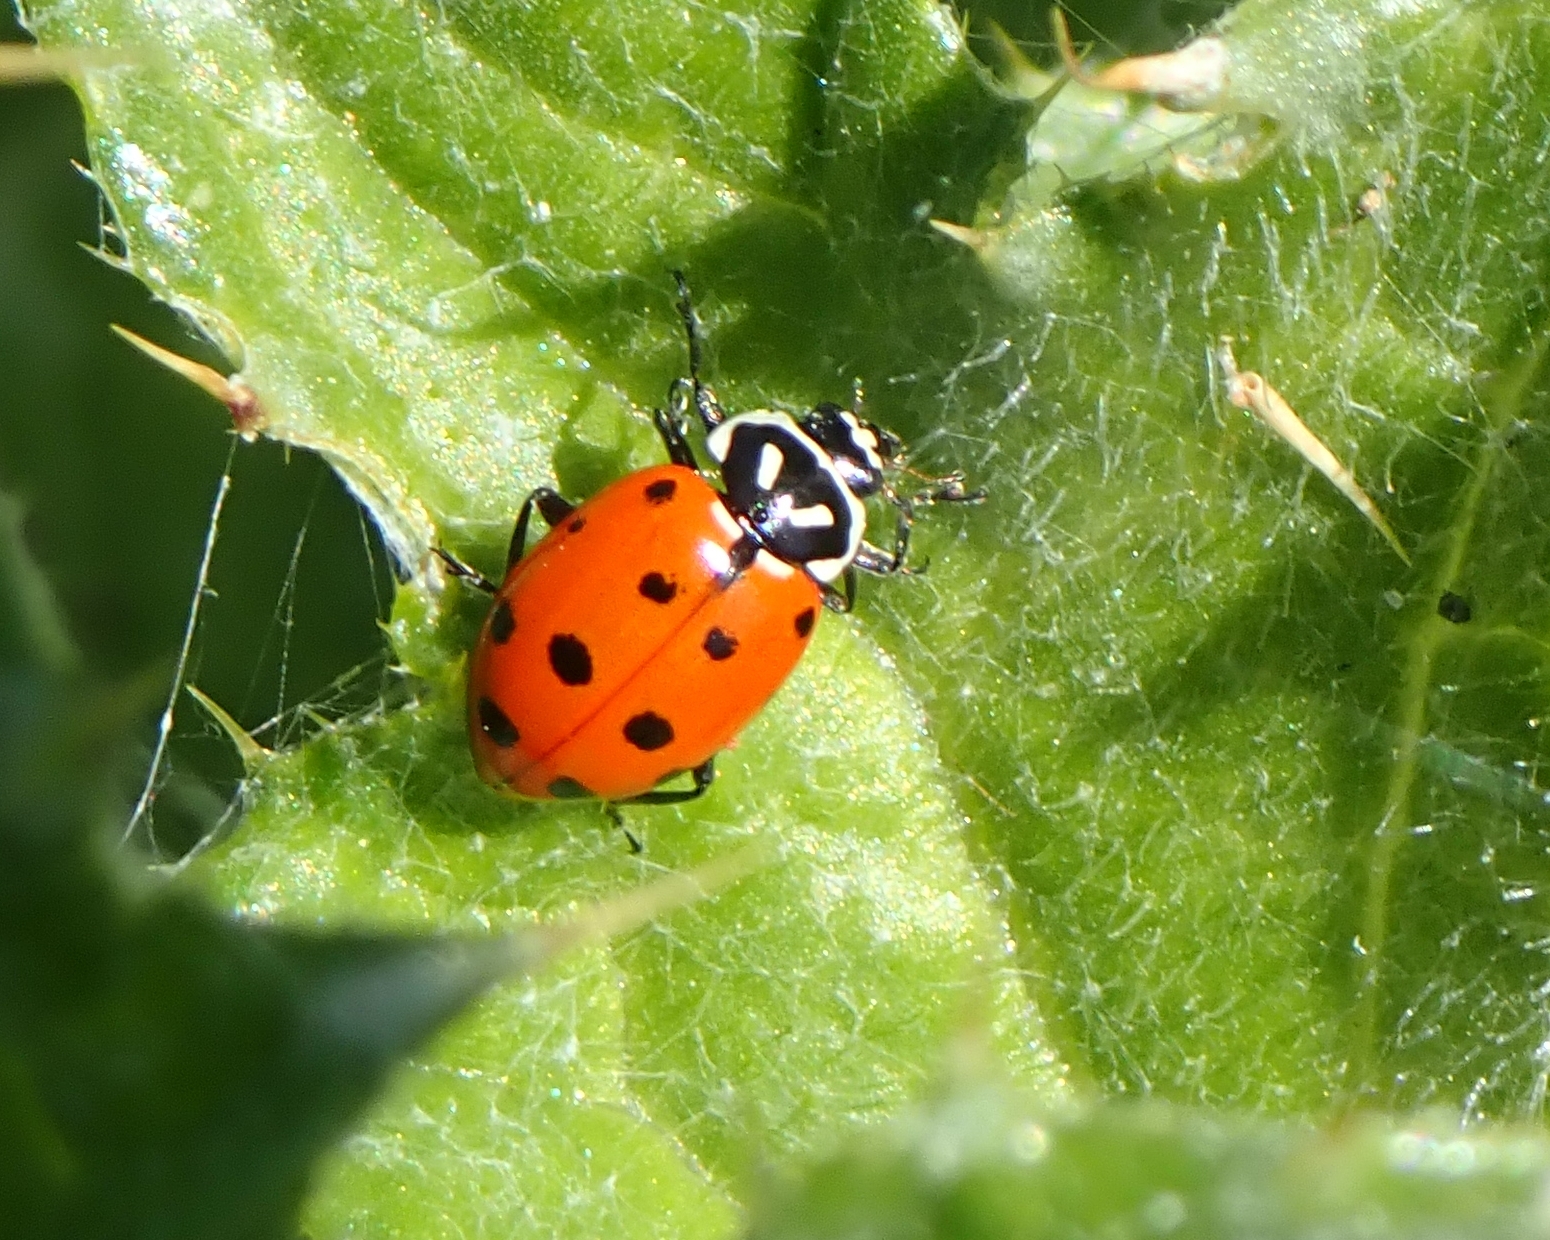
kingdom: Animalia
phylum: Arthropoda
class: Insecta
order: Coleoptera
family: Coccinellidae
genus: Hippodamia
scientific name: Hippodamia convergens
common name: Convergent lady beetle
